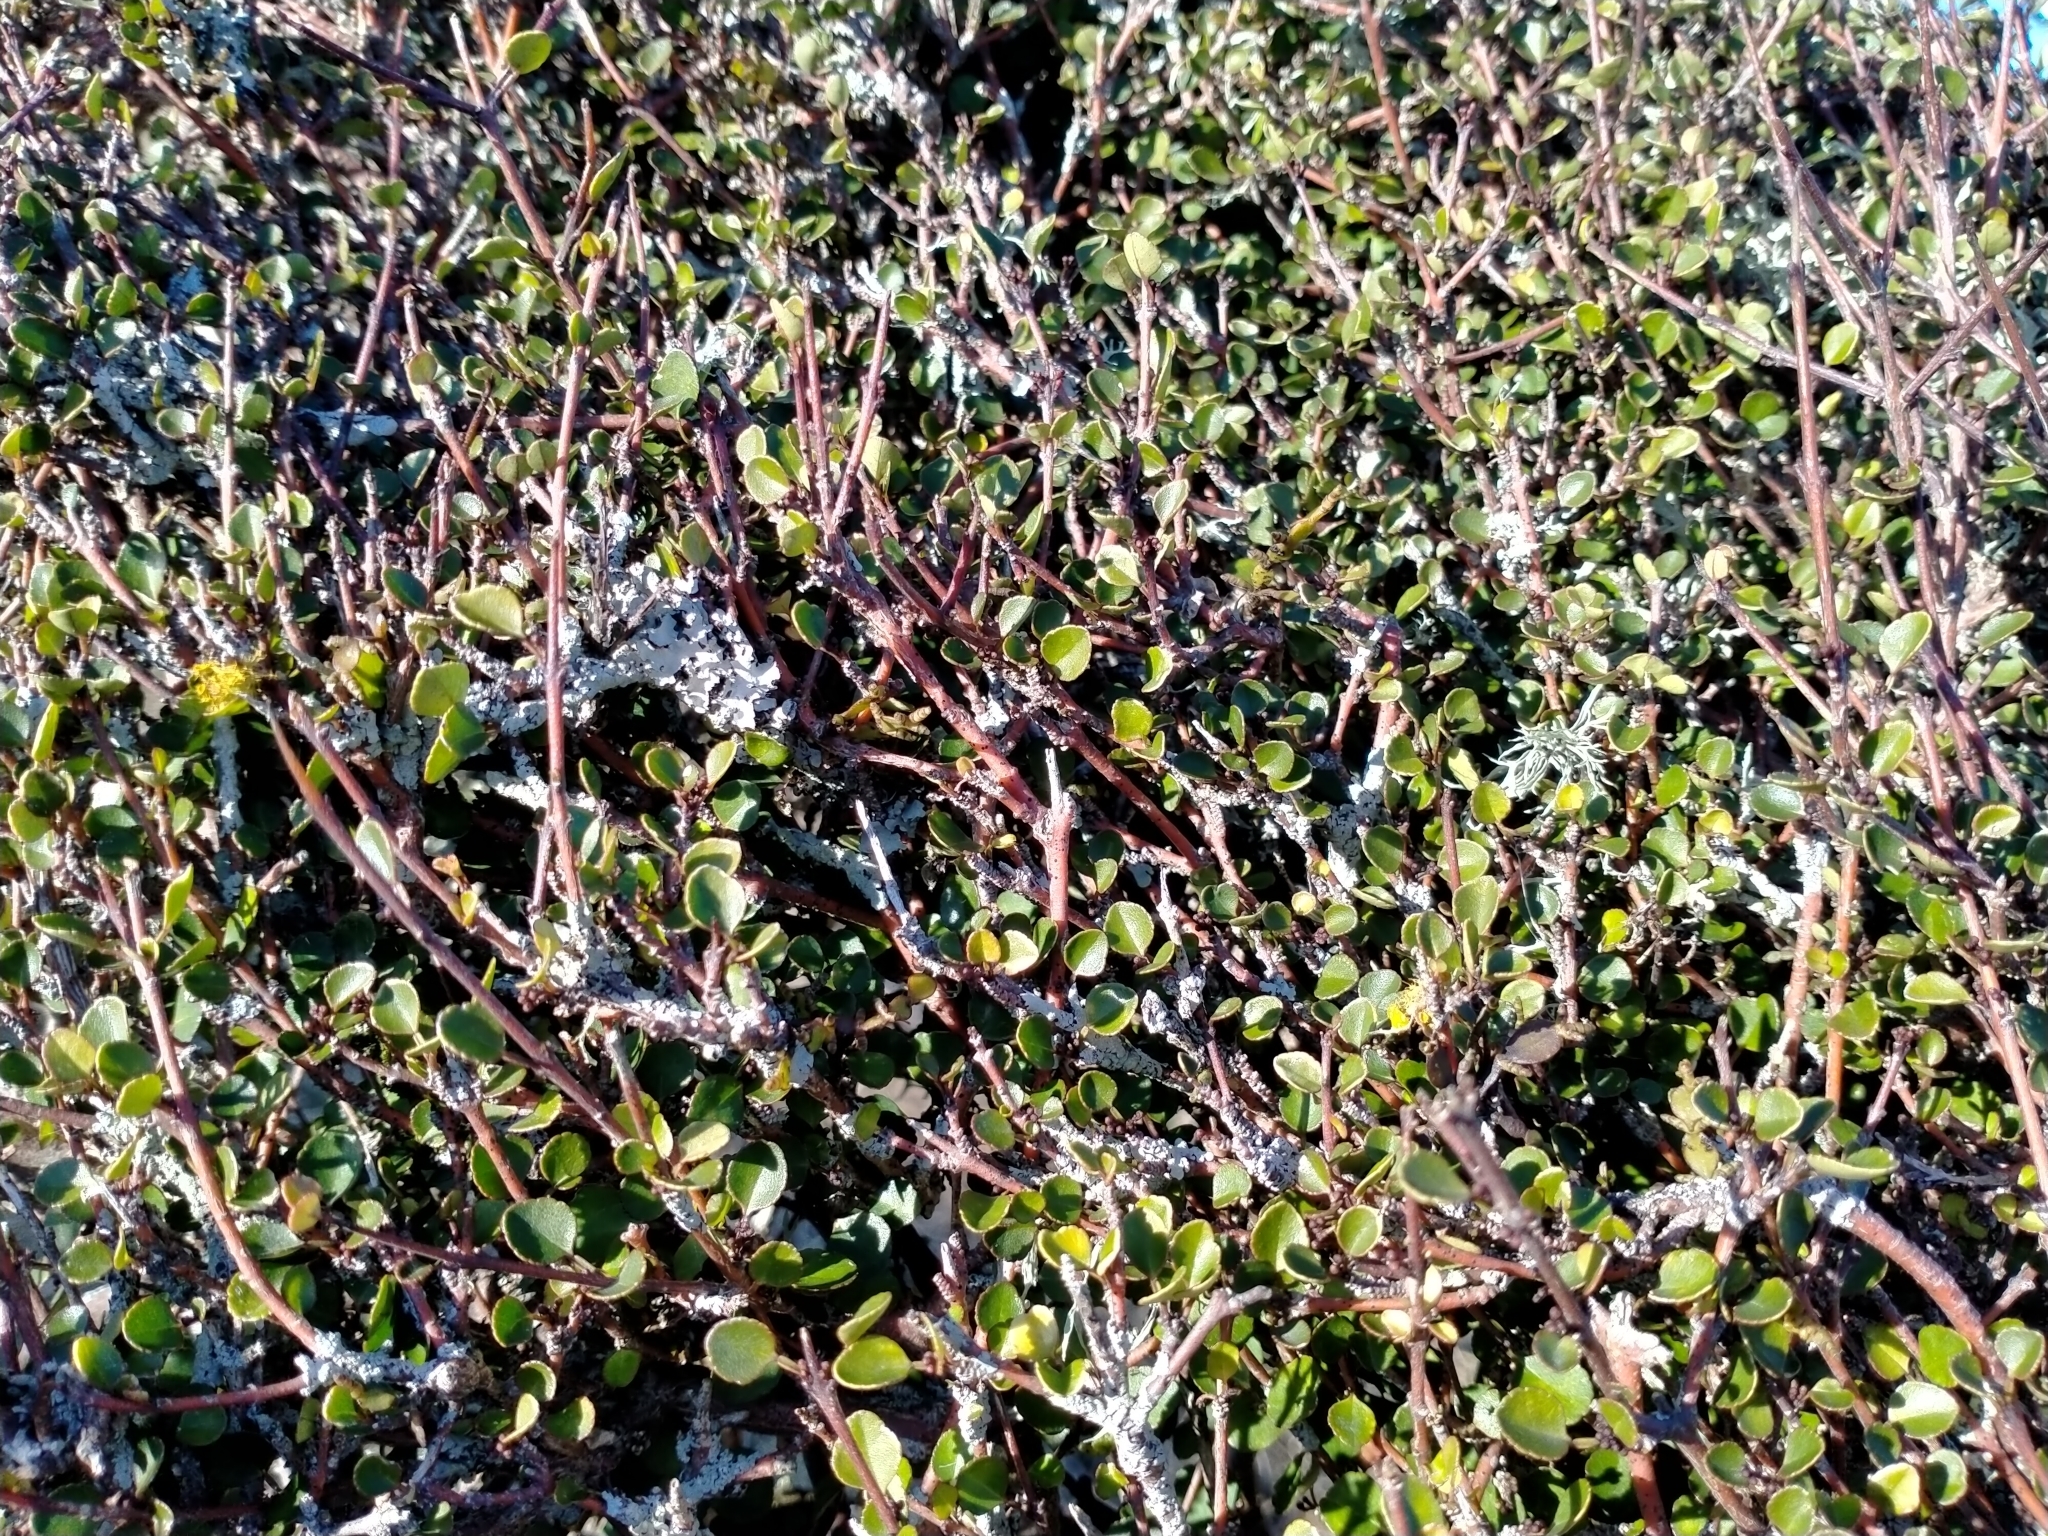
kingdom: Plantae
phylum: Tracheophyta
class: Magnoliopsida
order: Sapindales
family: Rutaceae
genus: Melicope
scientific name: Melicope simplex
